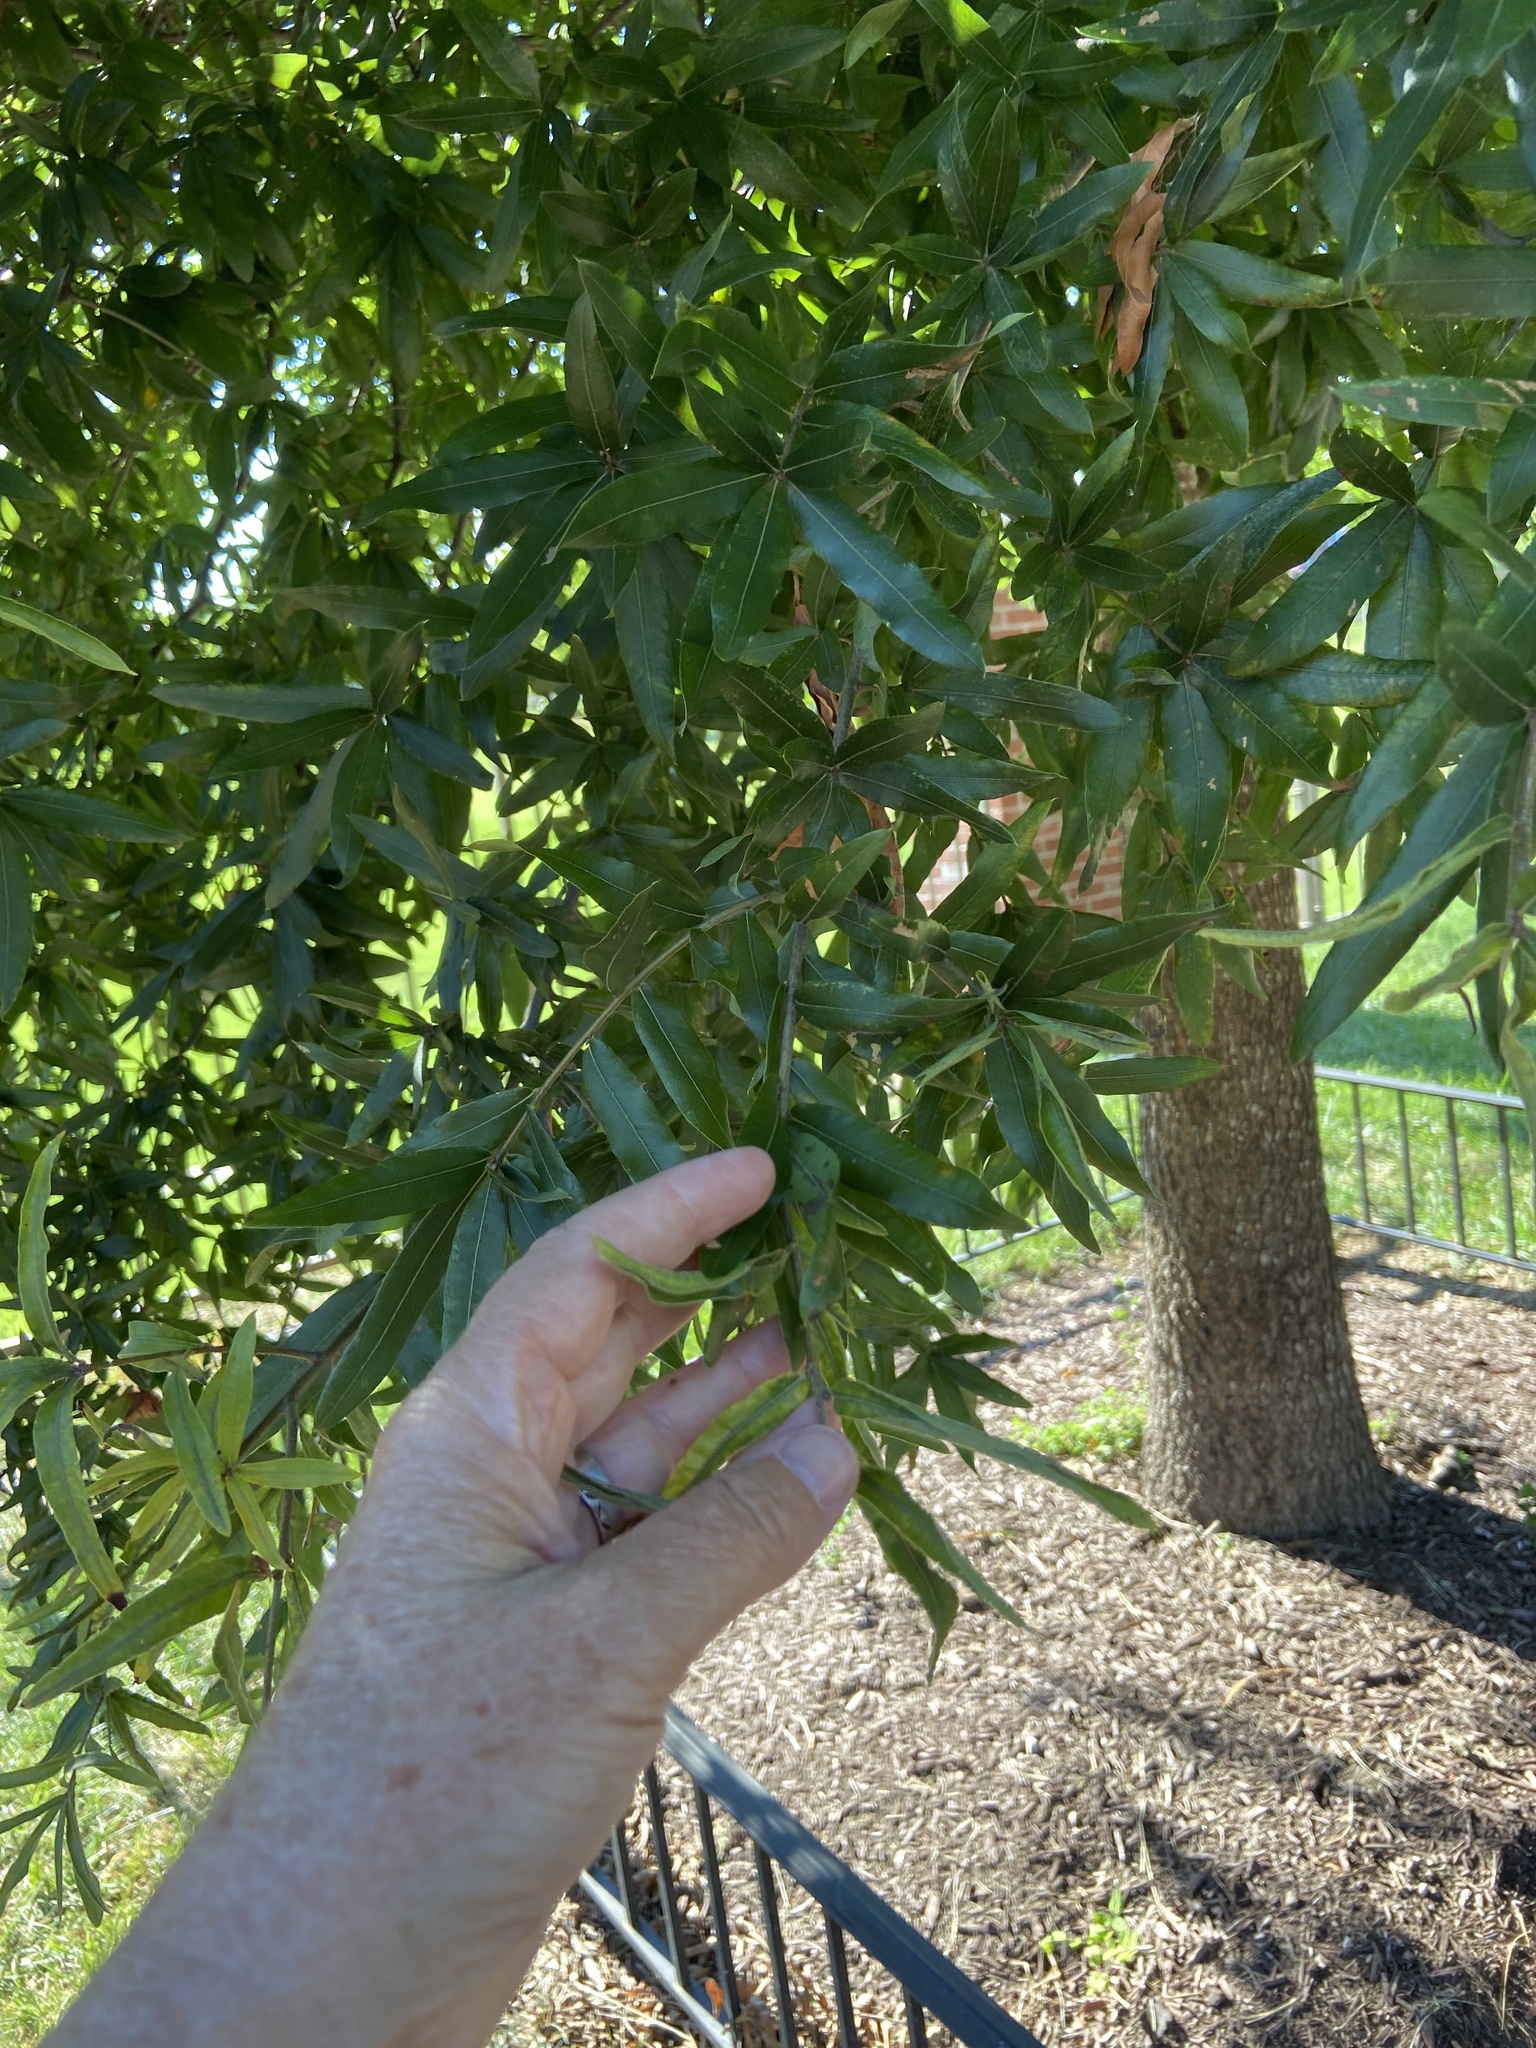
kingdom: Plantae
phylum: Tracheophyta
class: Magnoliopsida
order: Fagales
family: Fagaceae
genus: Quercus
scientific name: Quercus phellos
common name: Willow oak
